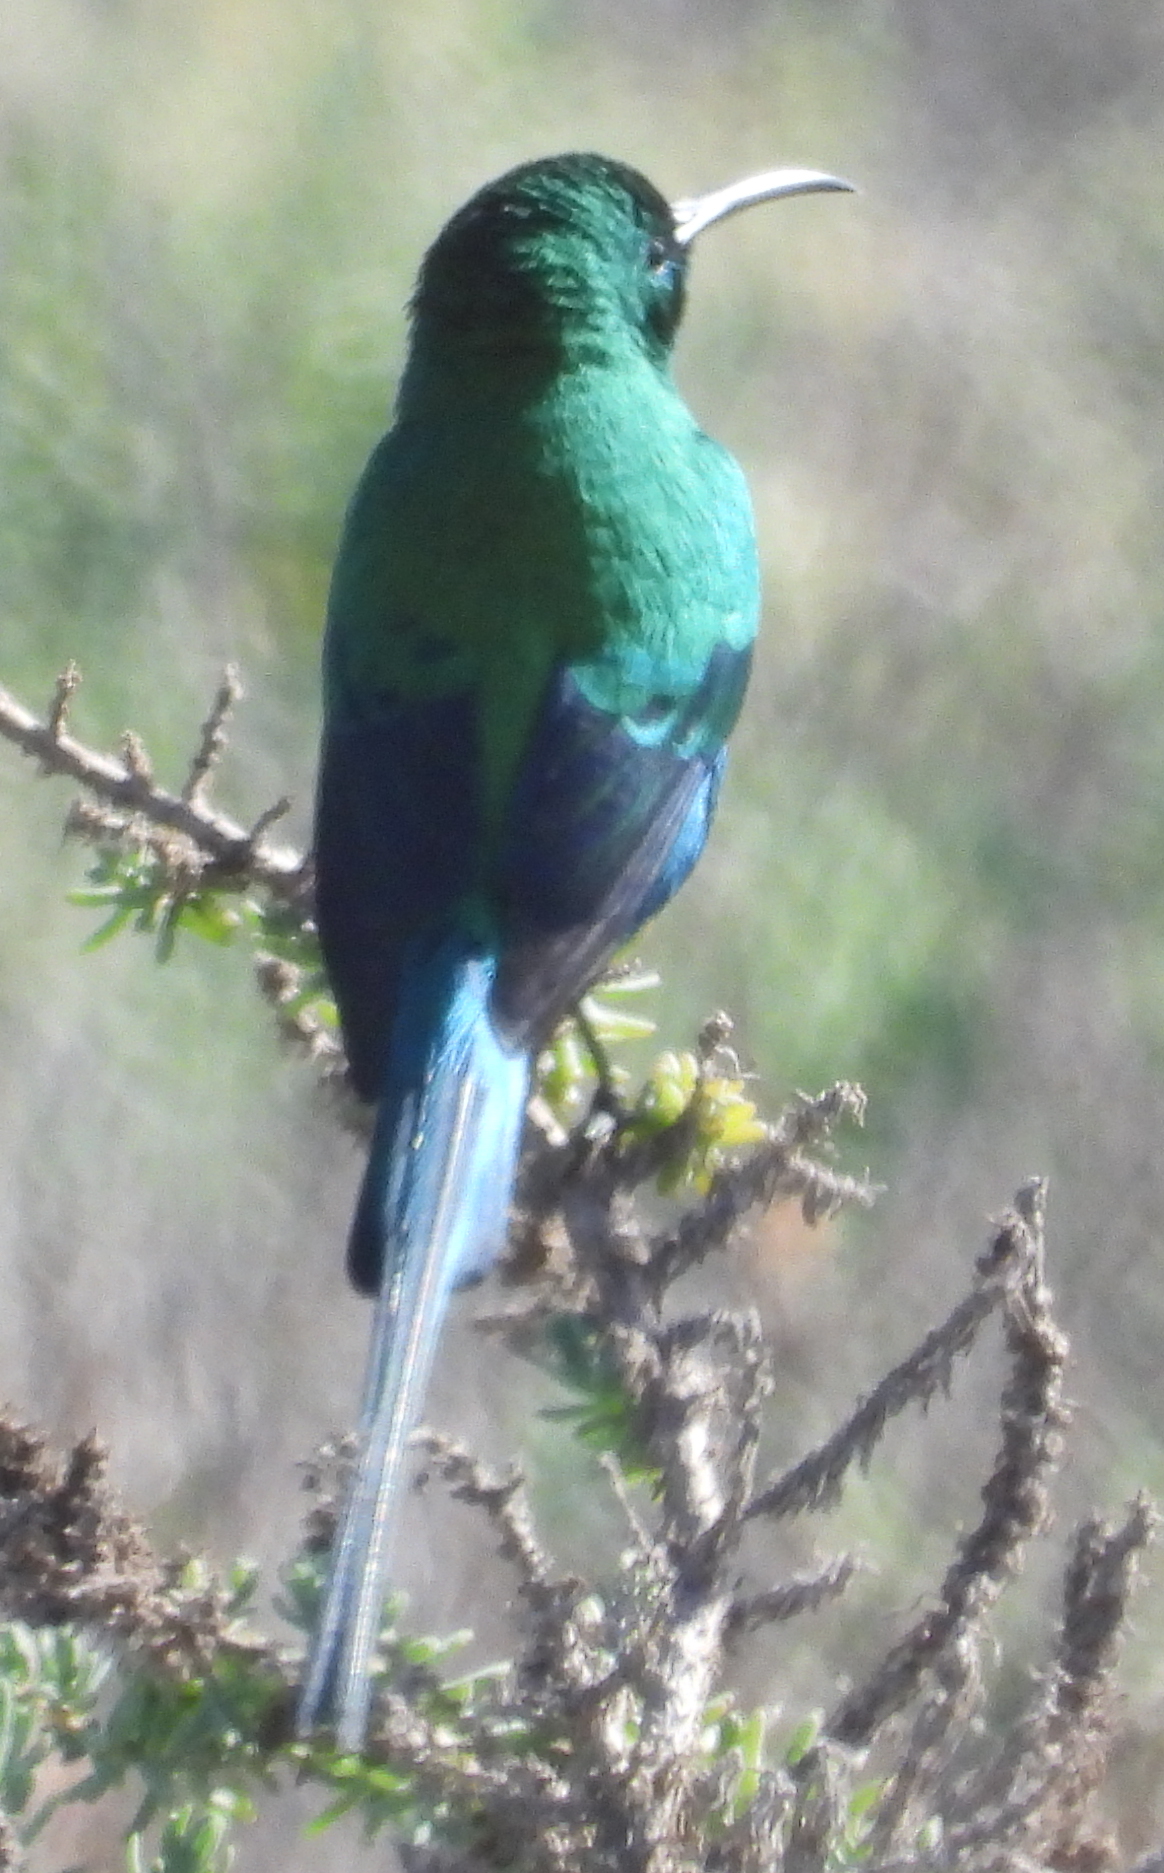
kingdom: Animalia
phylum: Chordata
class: Aves
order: Passeriformes
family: Nectariniidae
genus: Nectarinia
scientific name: Nectarinia famosa
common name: Malachite sunbird
